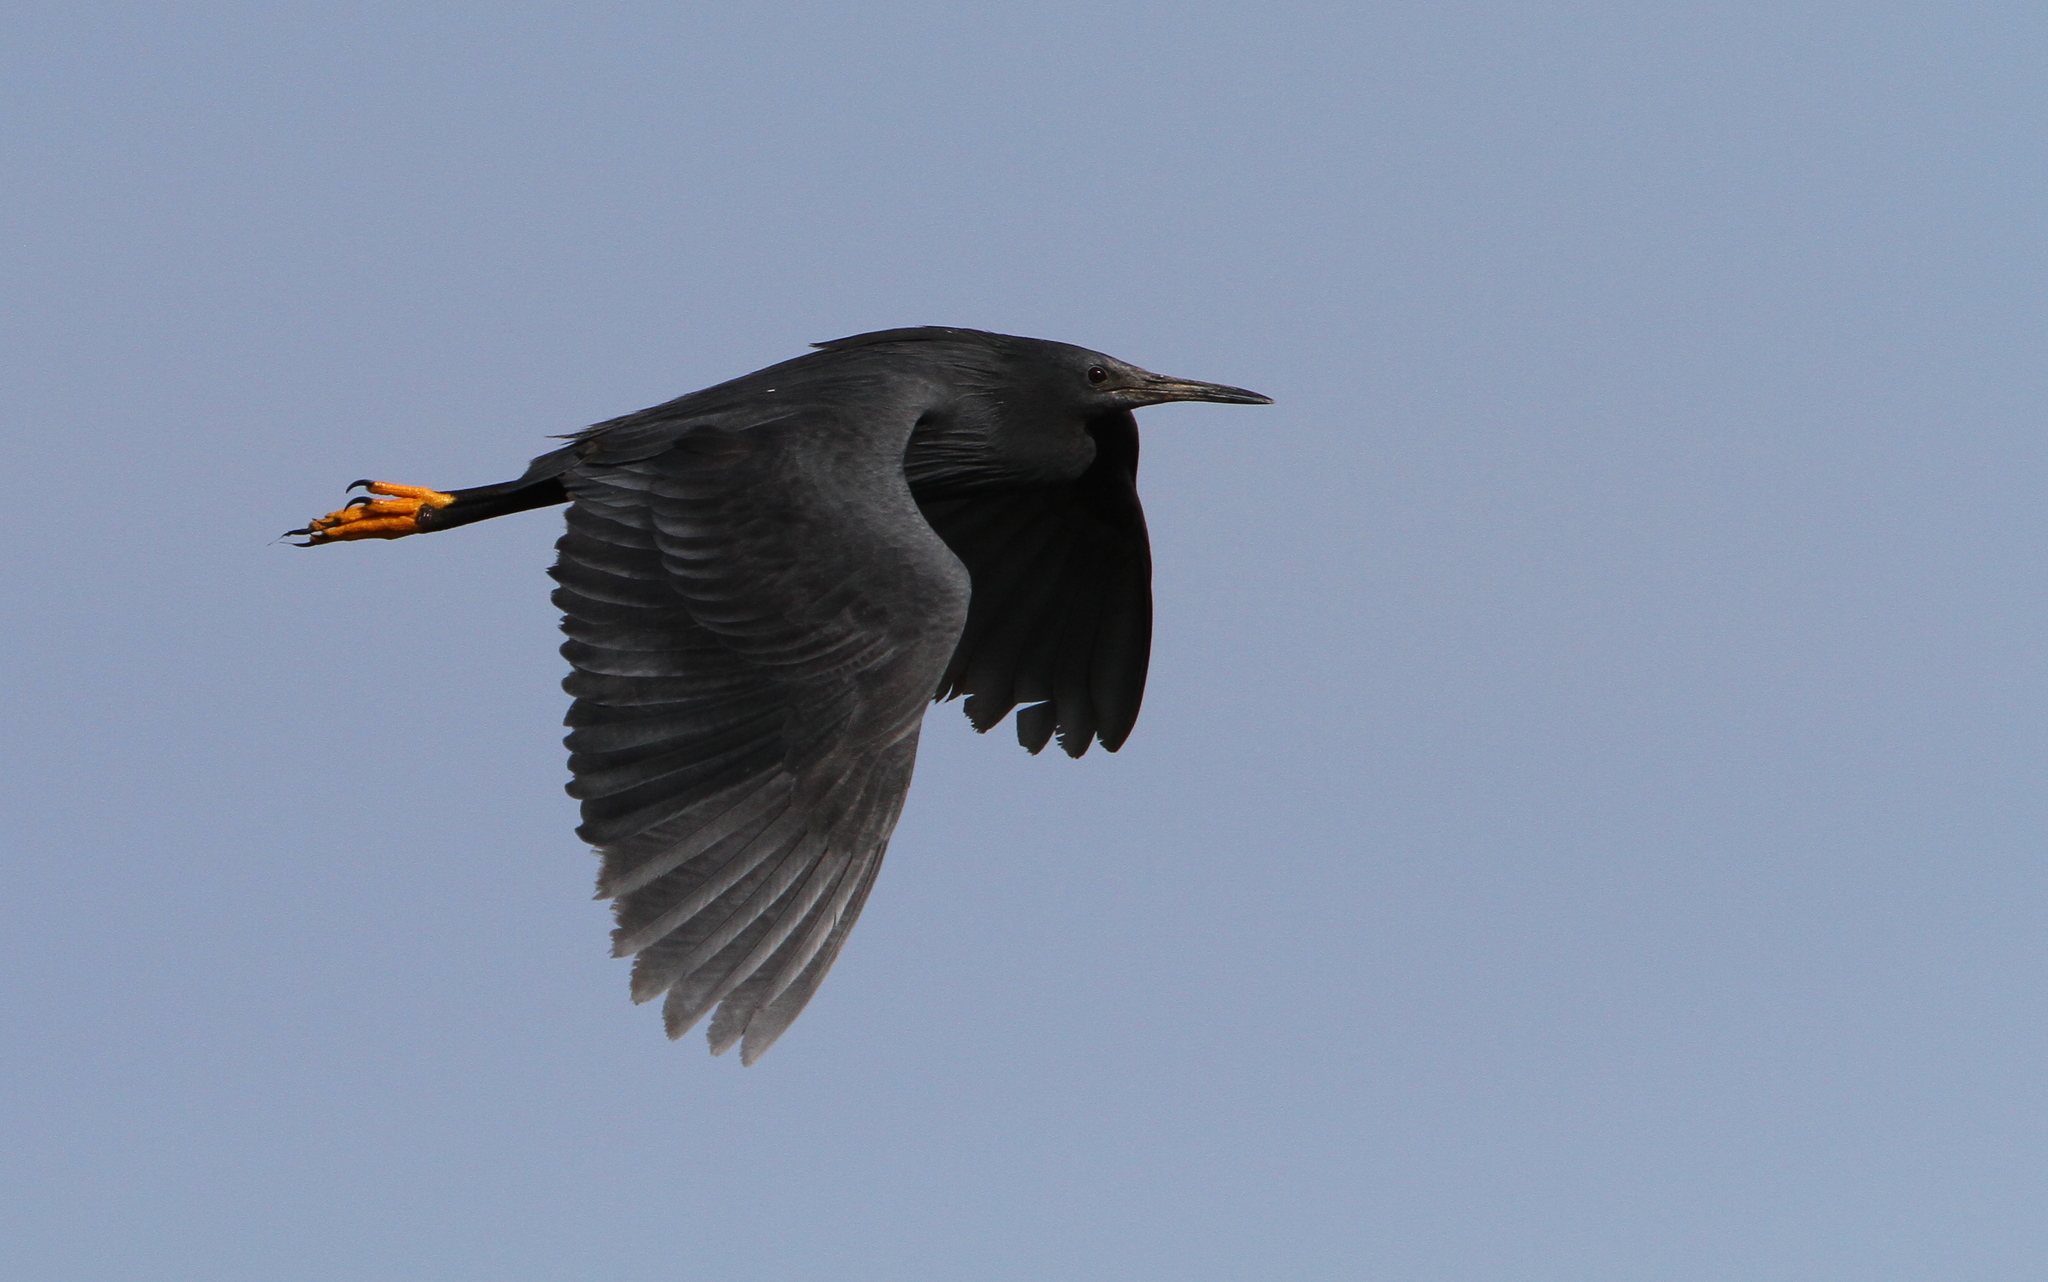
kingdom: Animalia
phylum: Chordata
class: Aves
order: Pelecaniformes
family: Ardeidae
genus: Egretta
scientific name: Egretta ardesiaca
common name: Black heron
